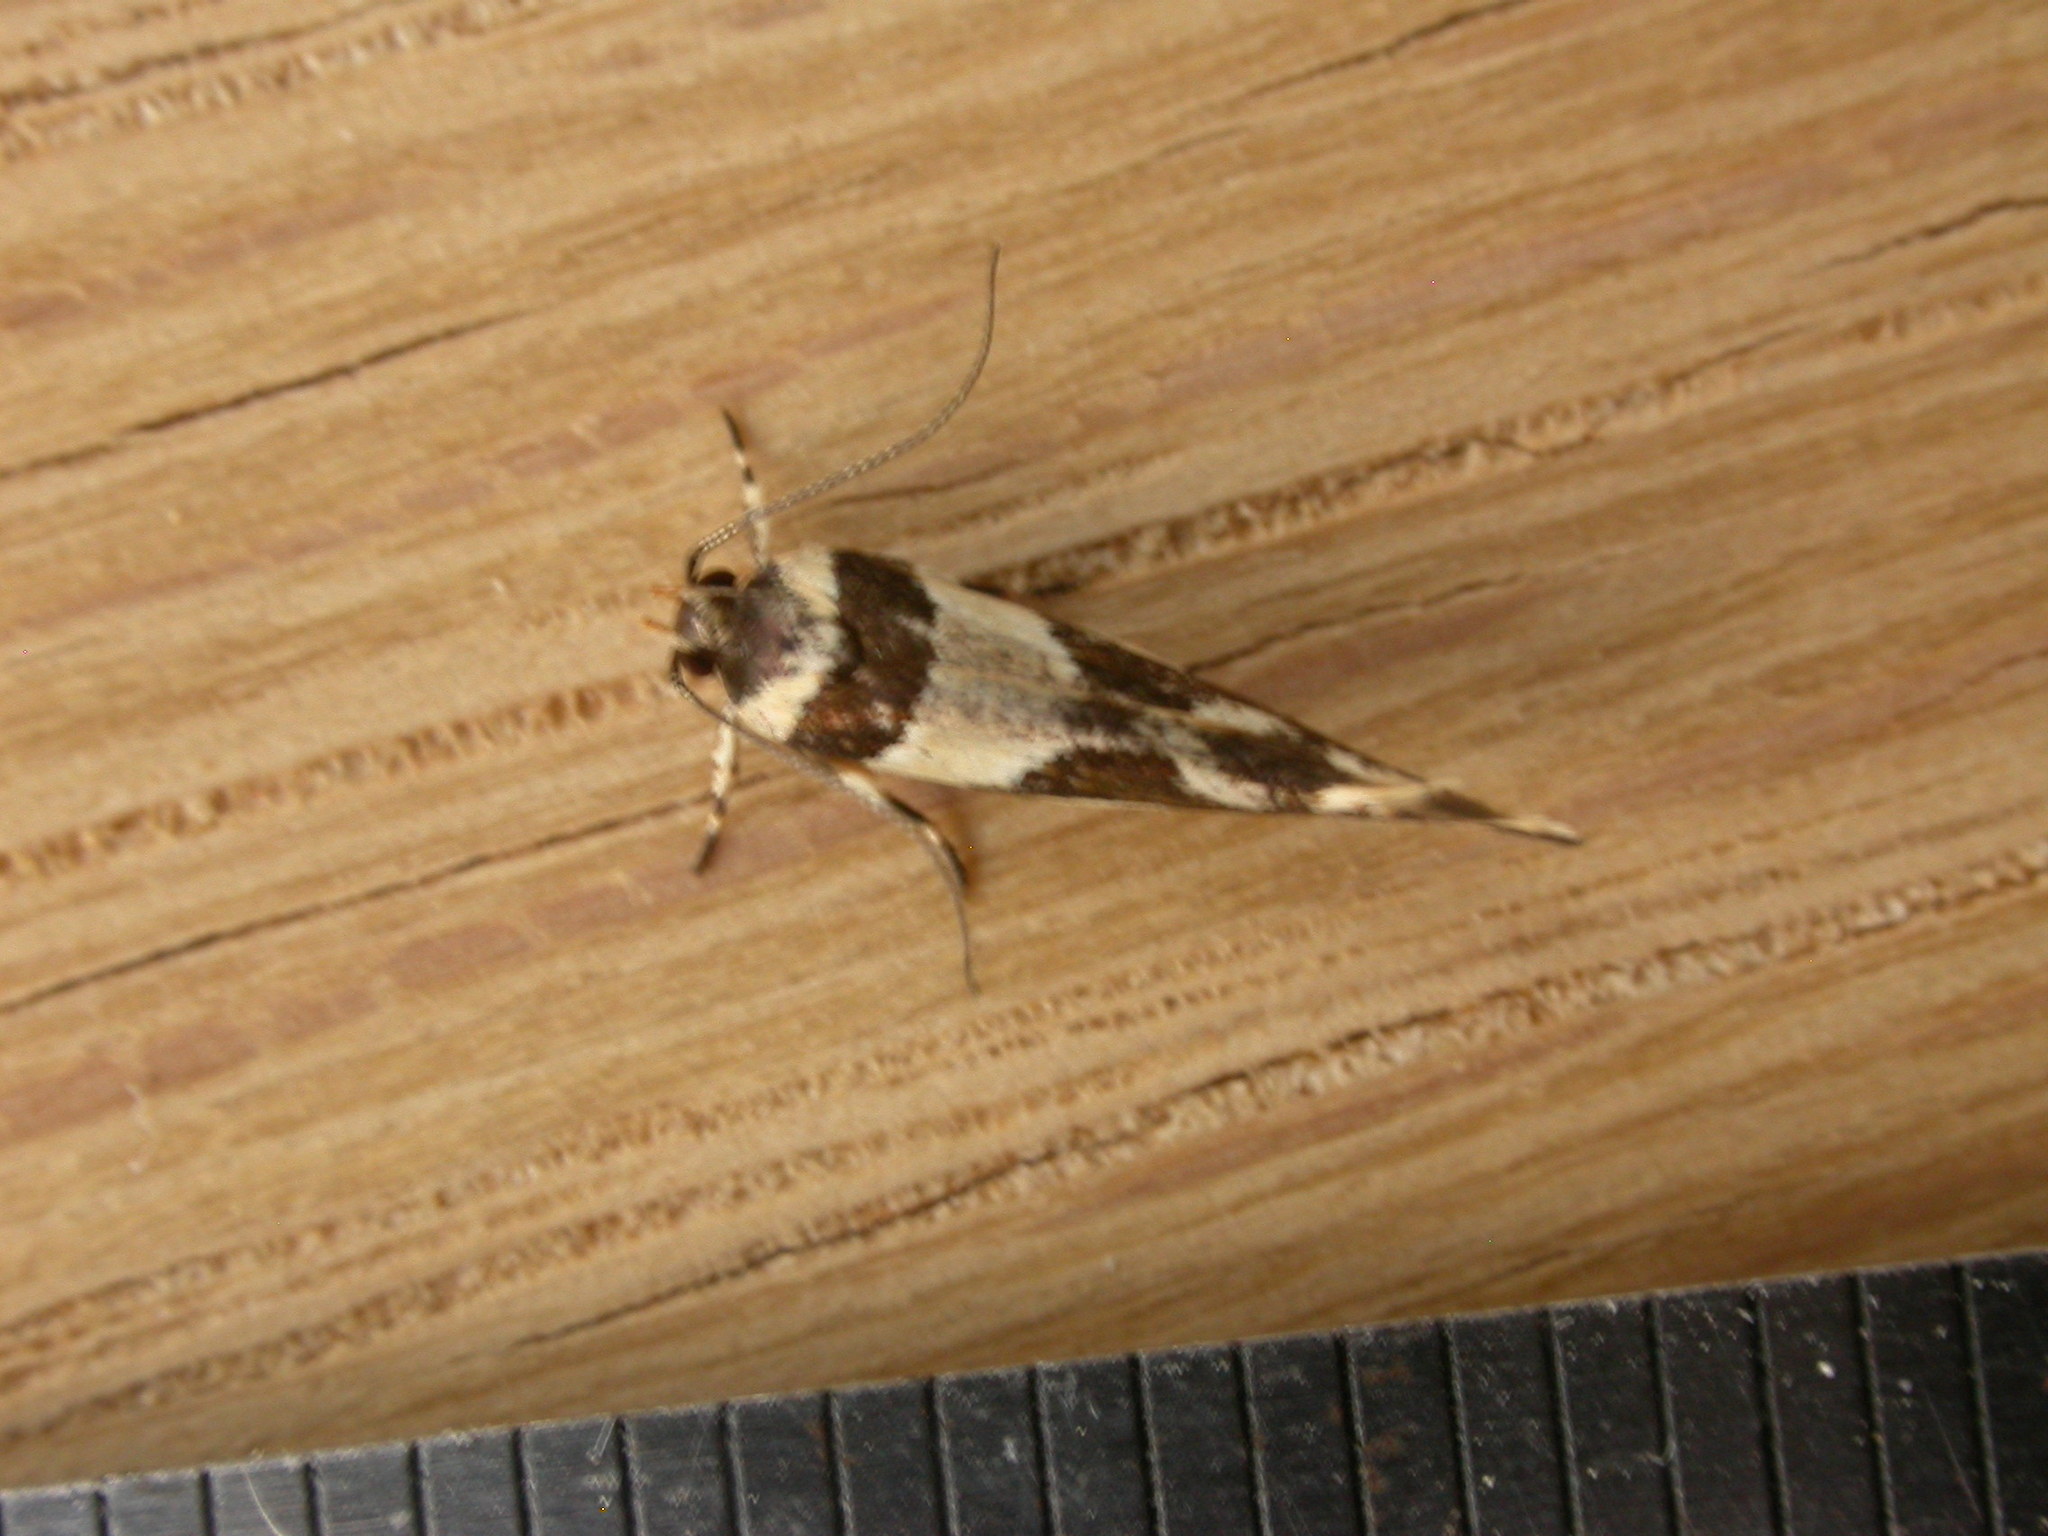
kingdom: Animalia
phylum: Arthropoda
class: Insecta
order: Lepidoptera
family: Cosmopterigidae
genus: Macrobathra
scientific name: Macrobathra desmotoma
